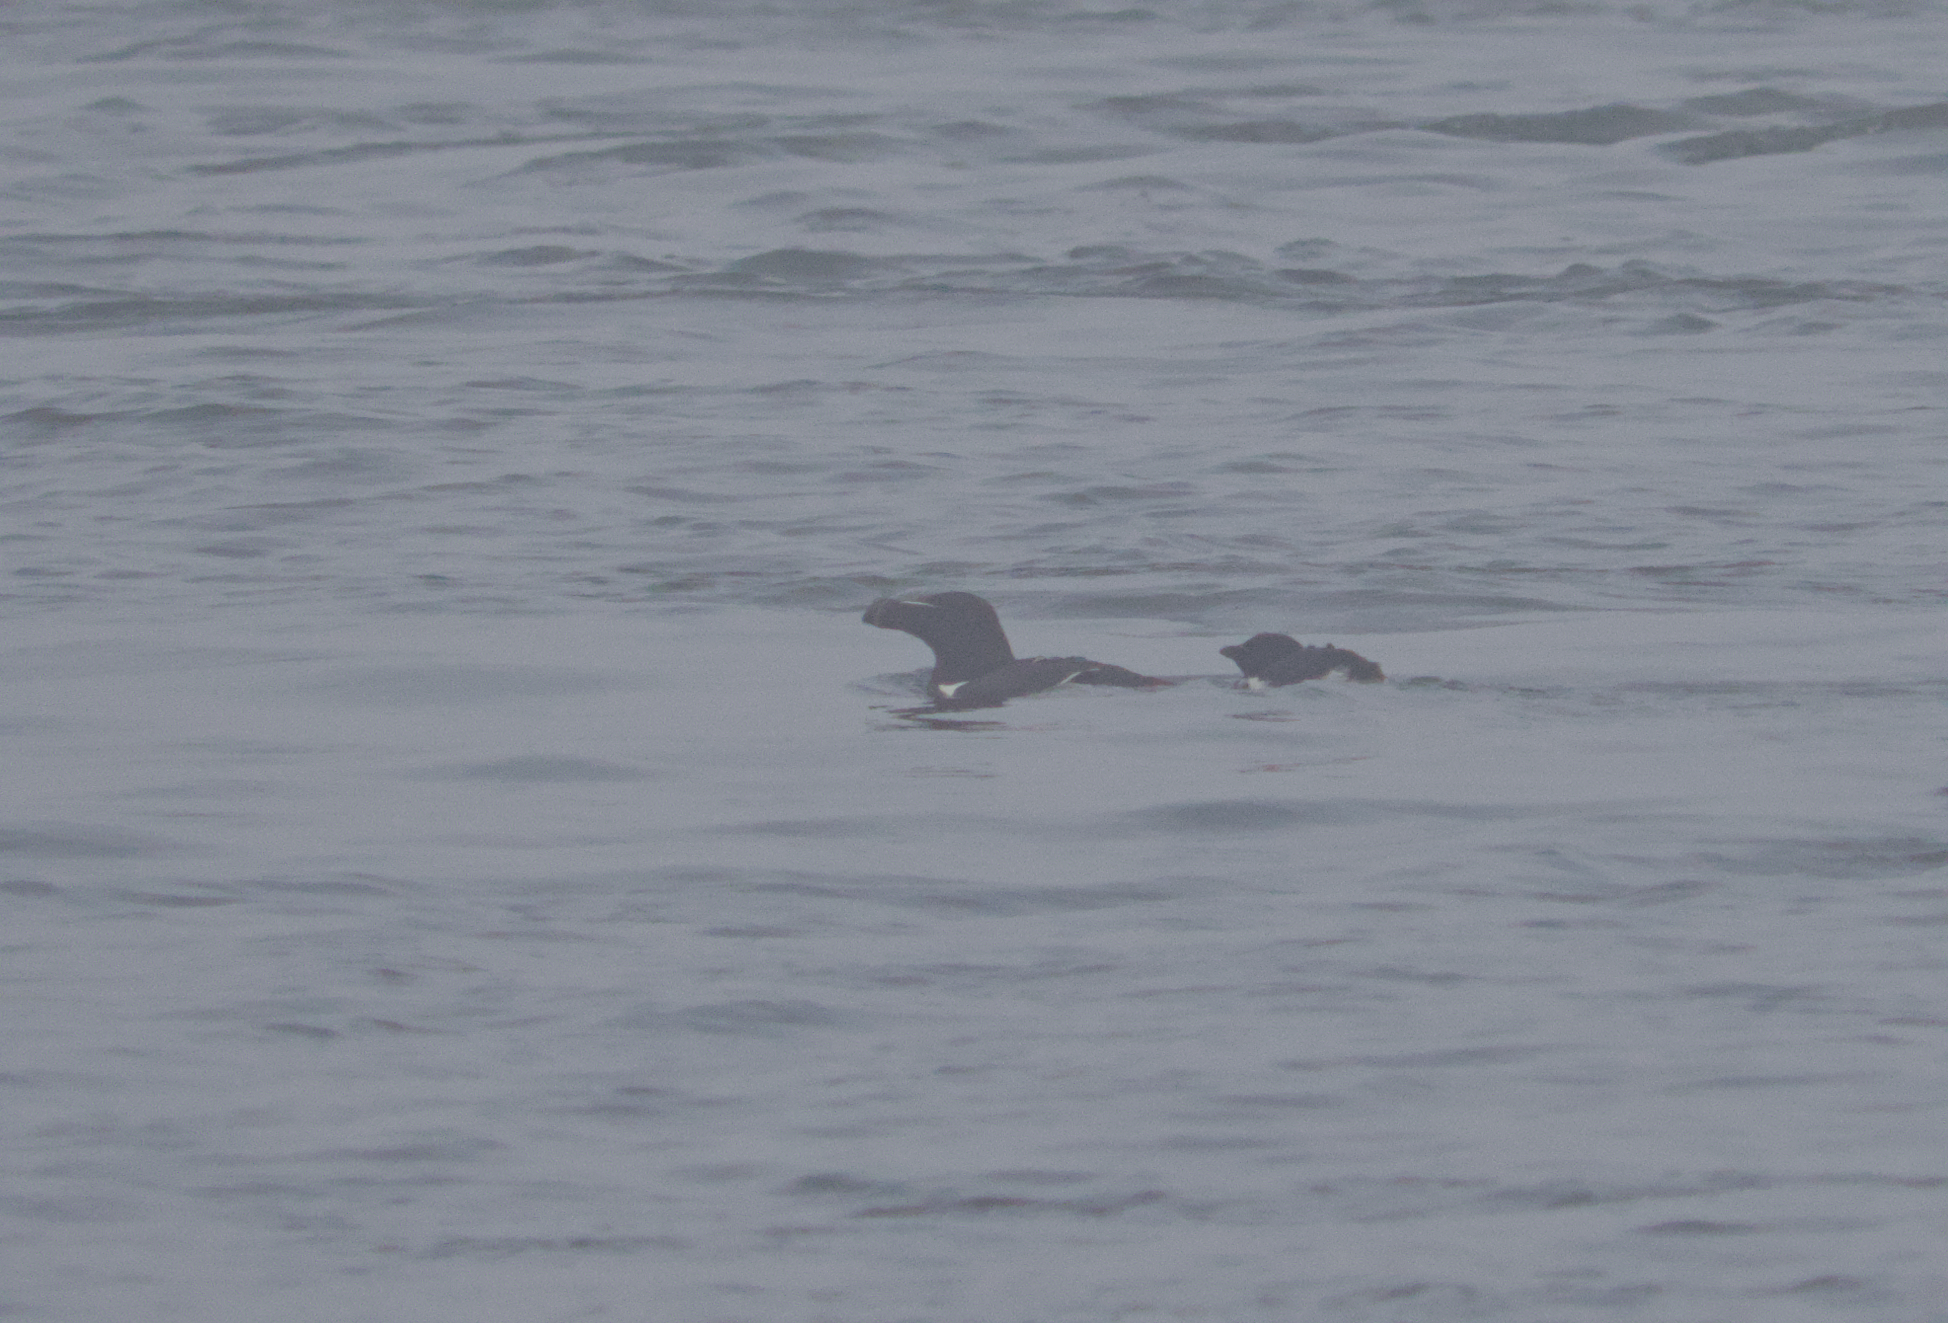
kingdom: Animalia
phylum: Chordata
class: Aves
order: Charadriiformes
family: Alcidae
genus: Alca
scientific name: Alca torda
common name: Razorbill
